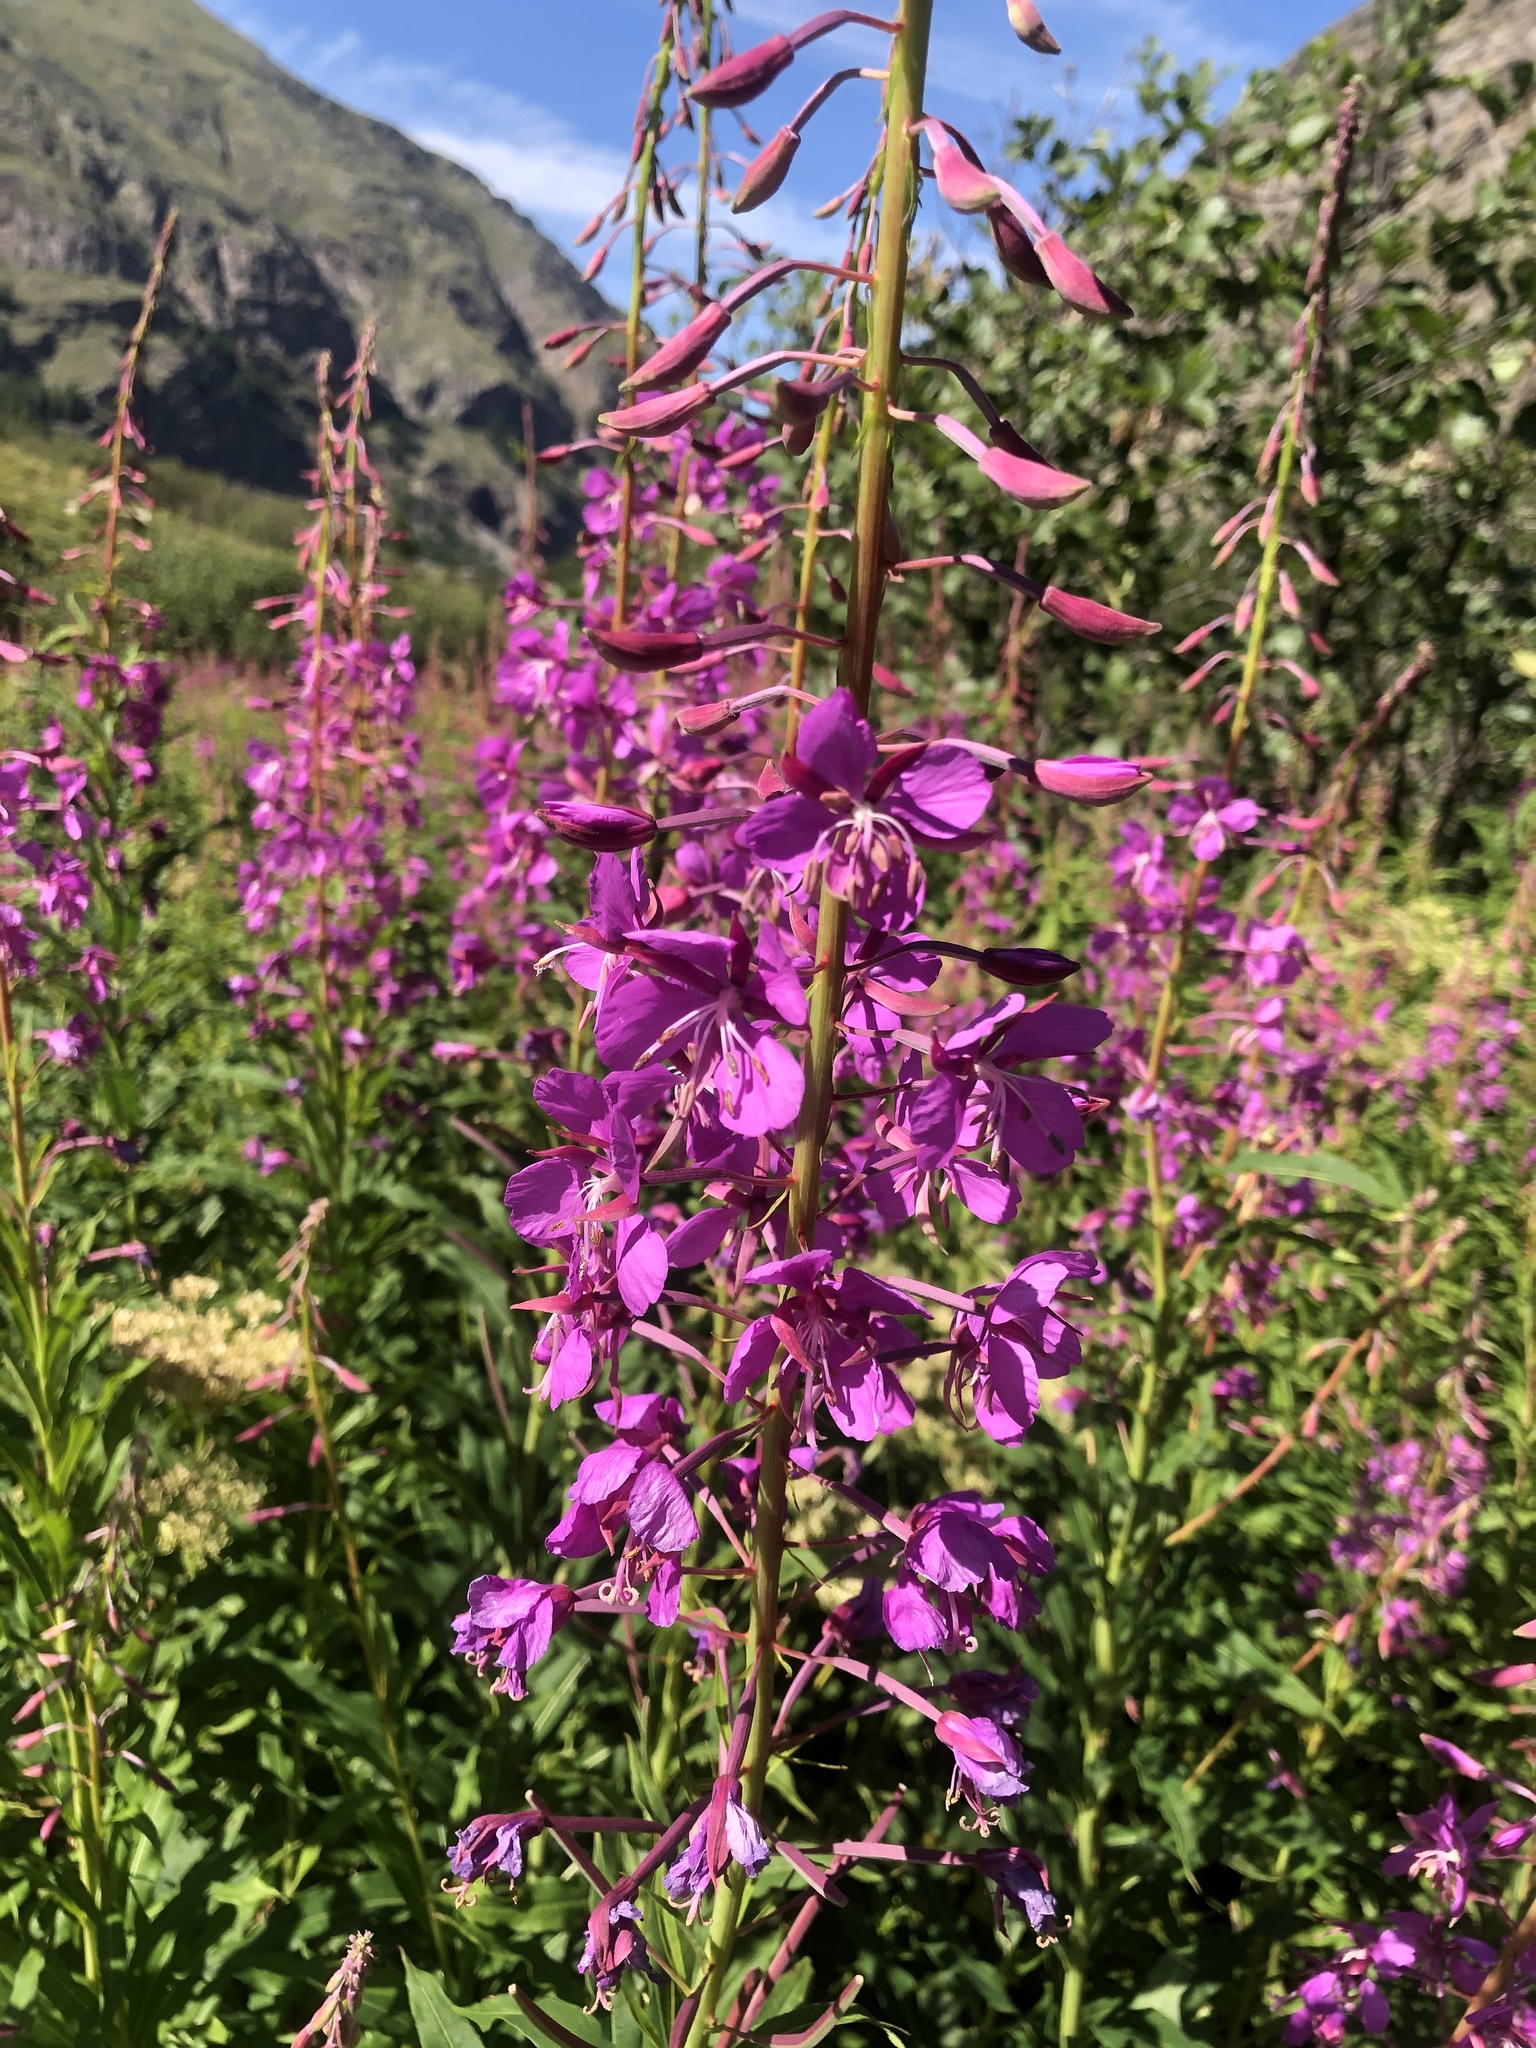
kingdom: Plantae
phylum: Tracheophyta
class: Magnoliopsida
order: Myrtales
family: Onagraceae
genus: Chamaenerion
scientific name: Chamaenerion angustifolium
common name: Fireweed
